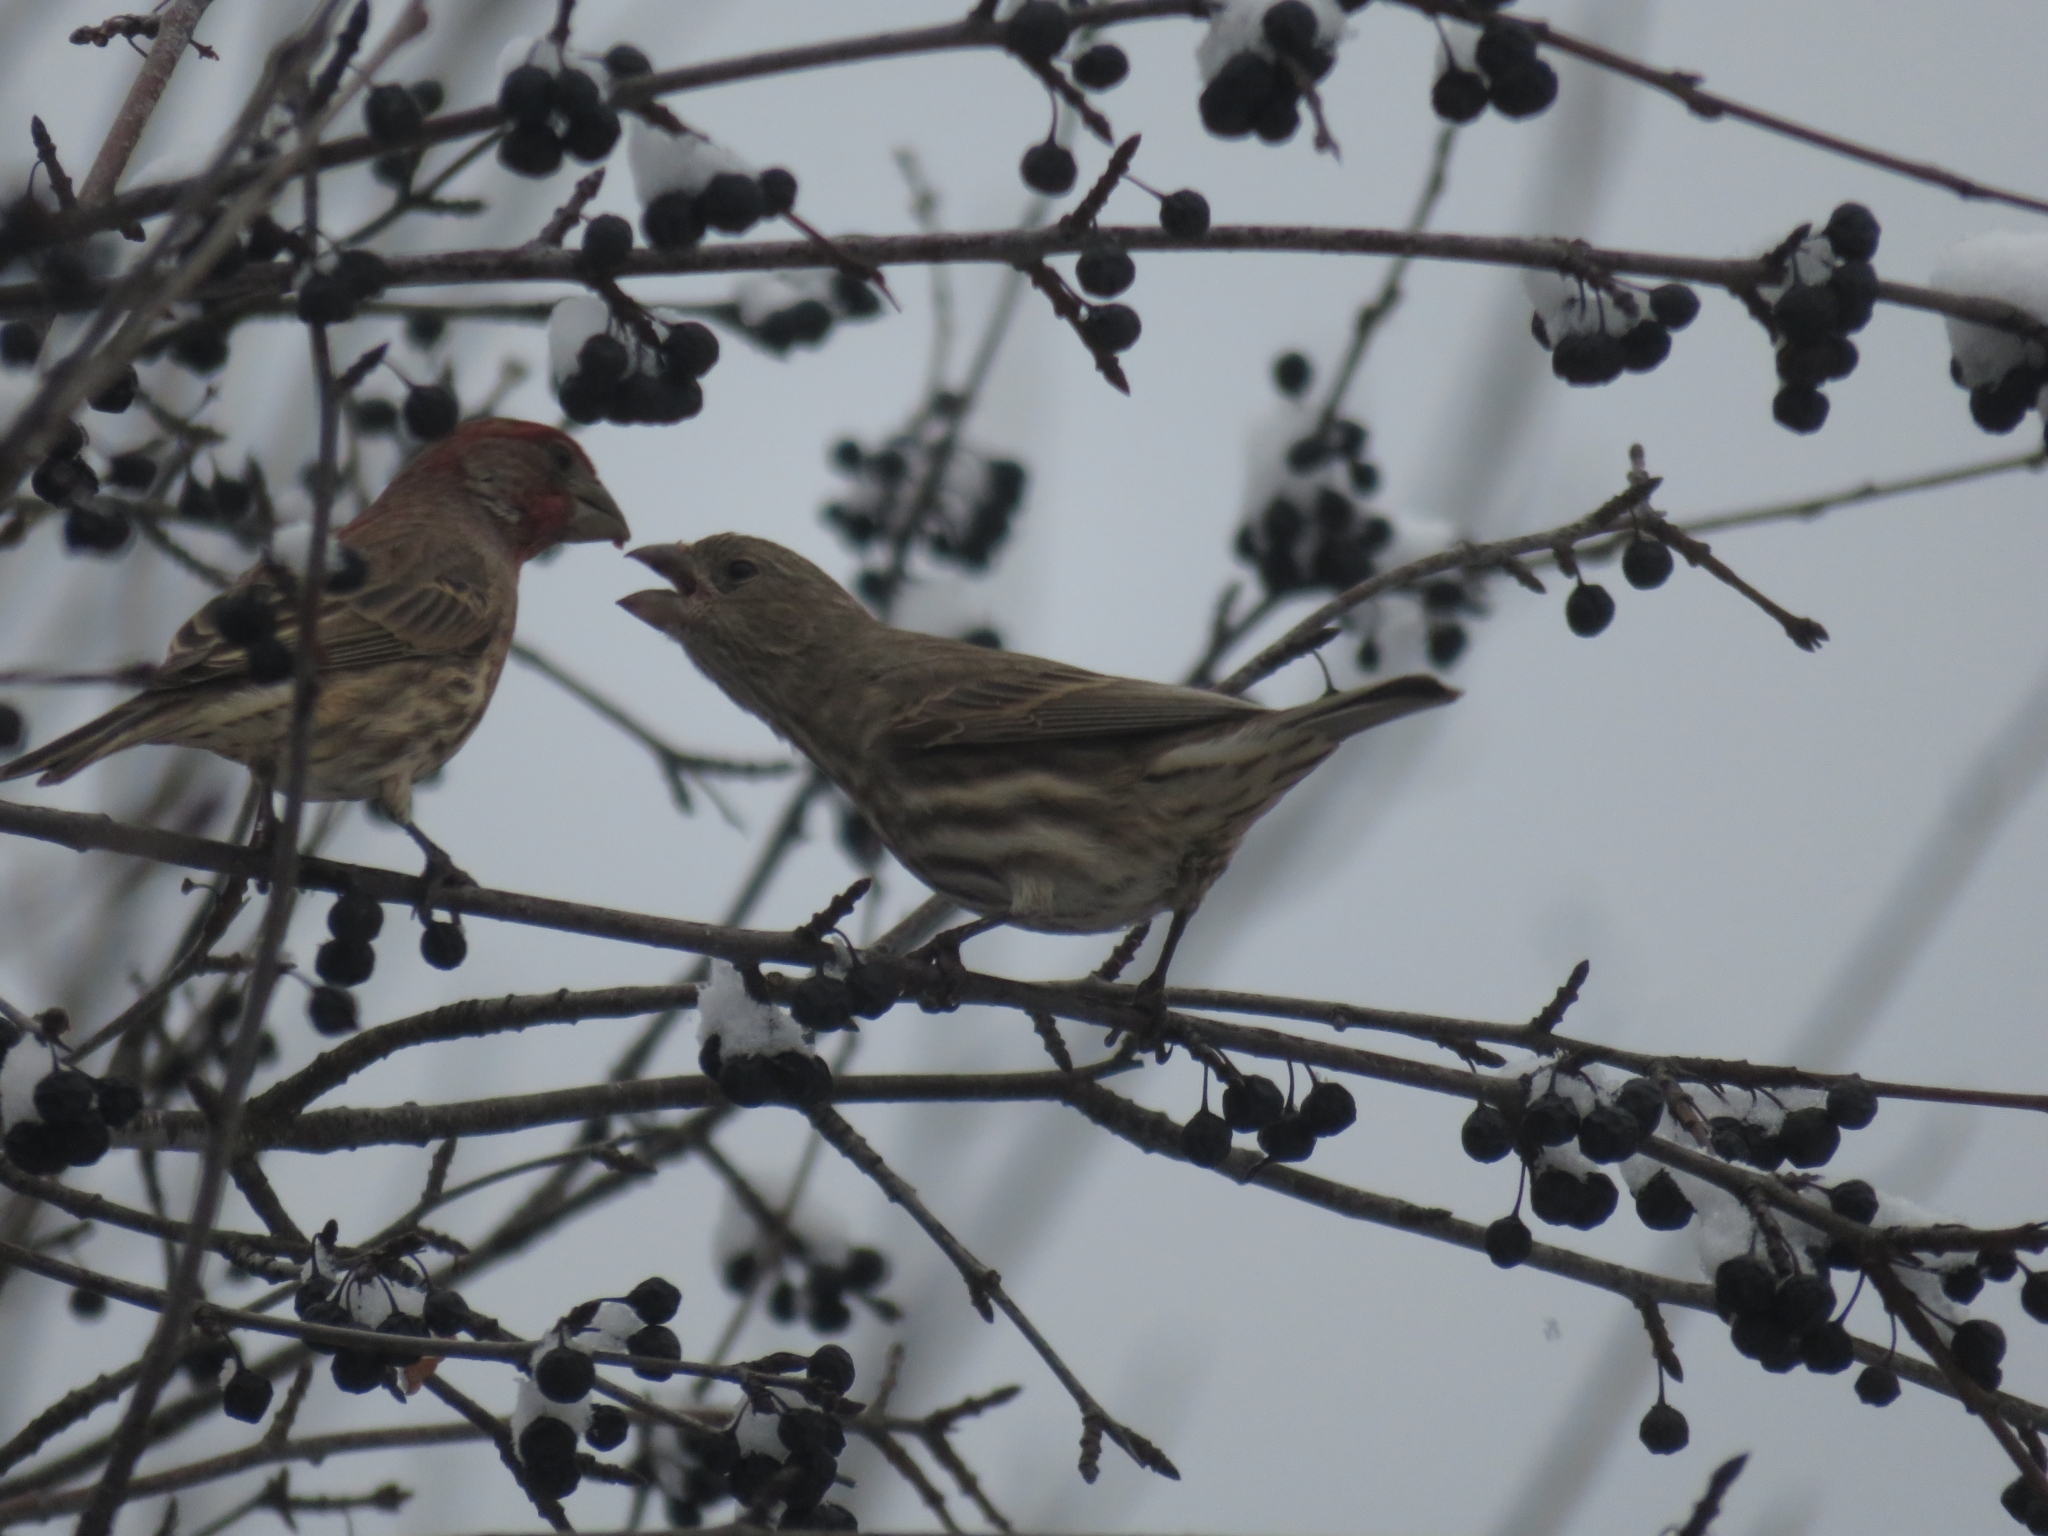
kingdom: Animalia
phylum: Chordata
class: Aves
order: Passeriformes
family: Fringillidae
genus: Haemorhous
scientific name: Haemorhous mexicanus
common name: House finch
